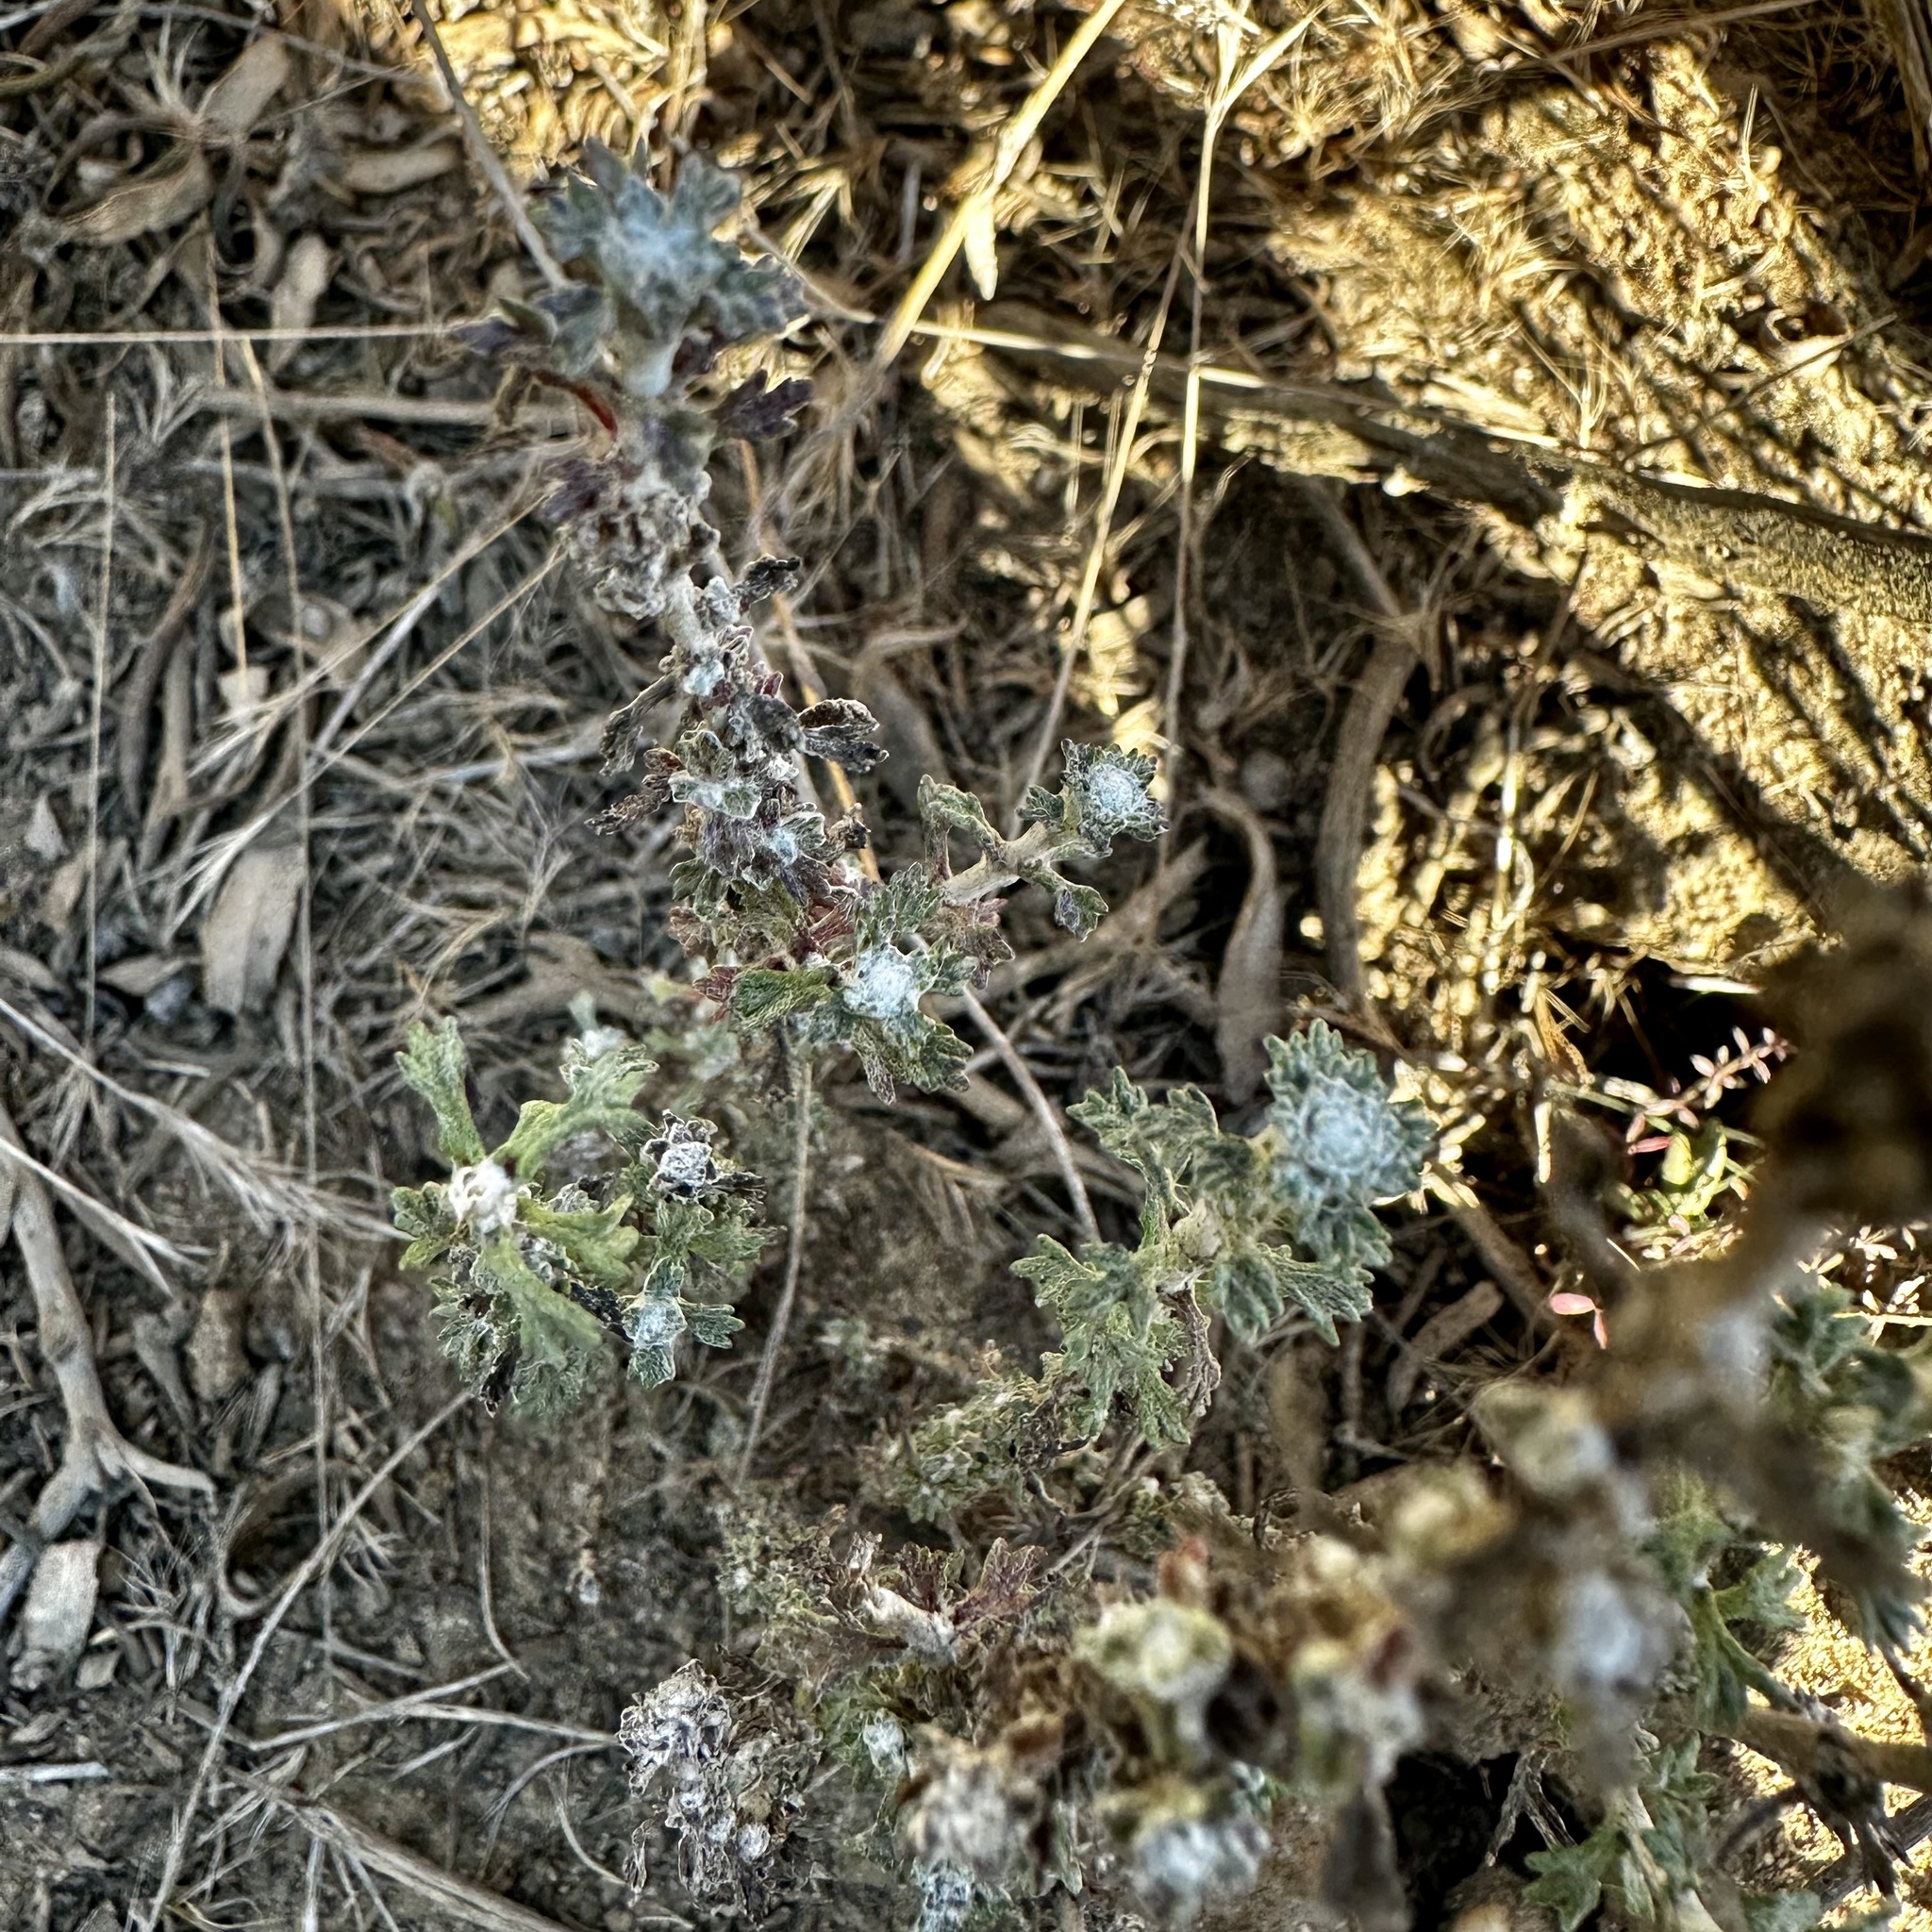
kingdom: Plantae
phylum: Tracheophyta
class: Magnoliopsida
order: Asterales
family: Asteraceae
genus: Eriophyllum
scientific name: Eriophyllum confertiflorum
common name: Golden-yarrow
